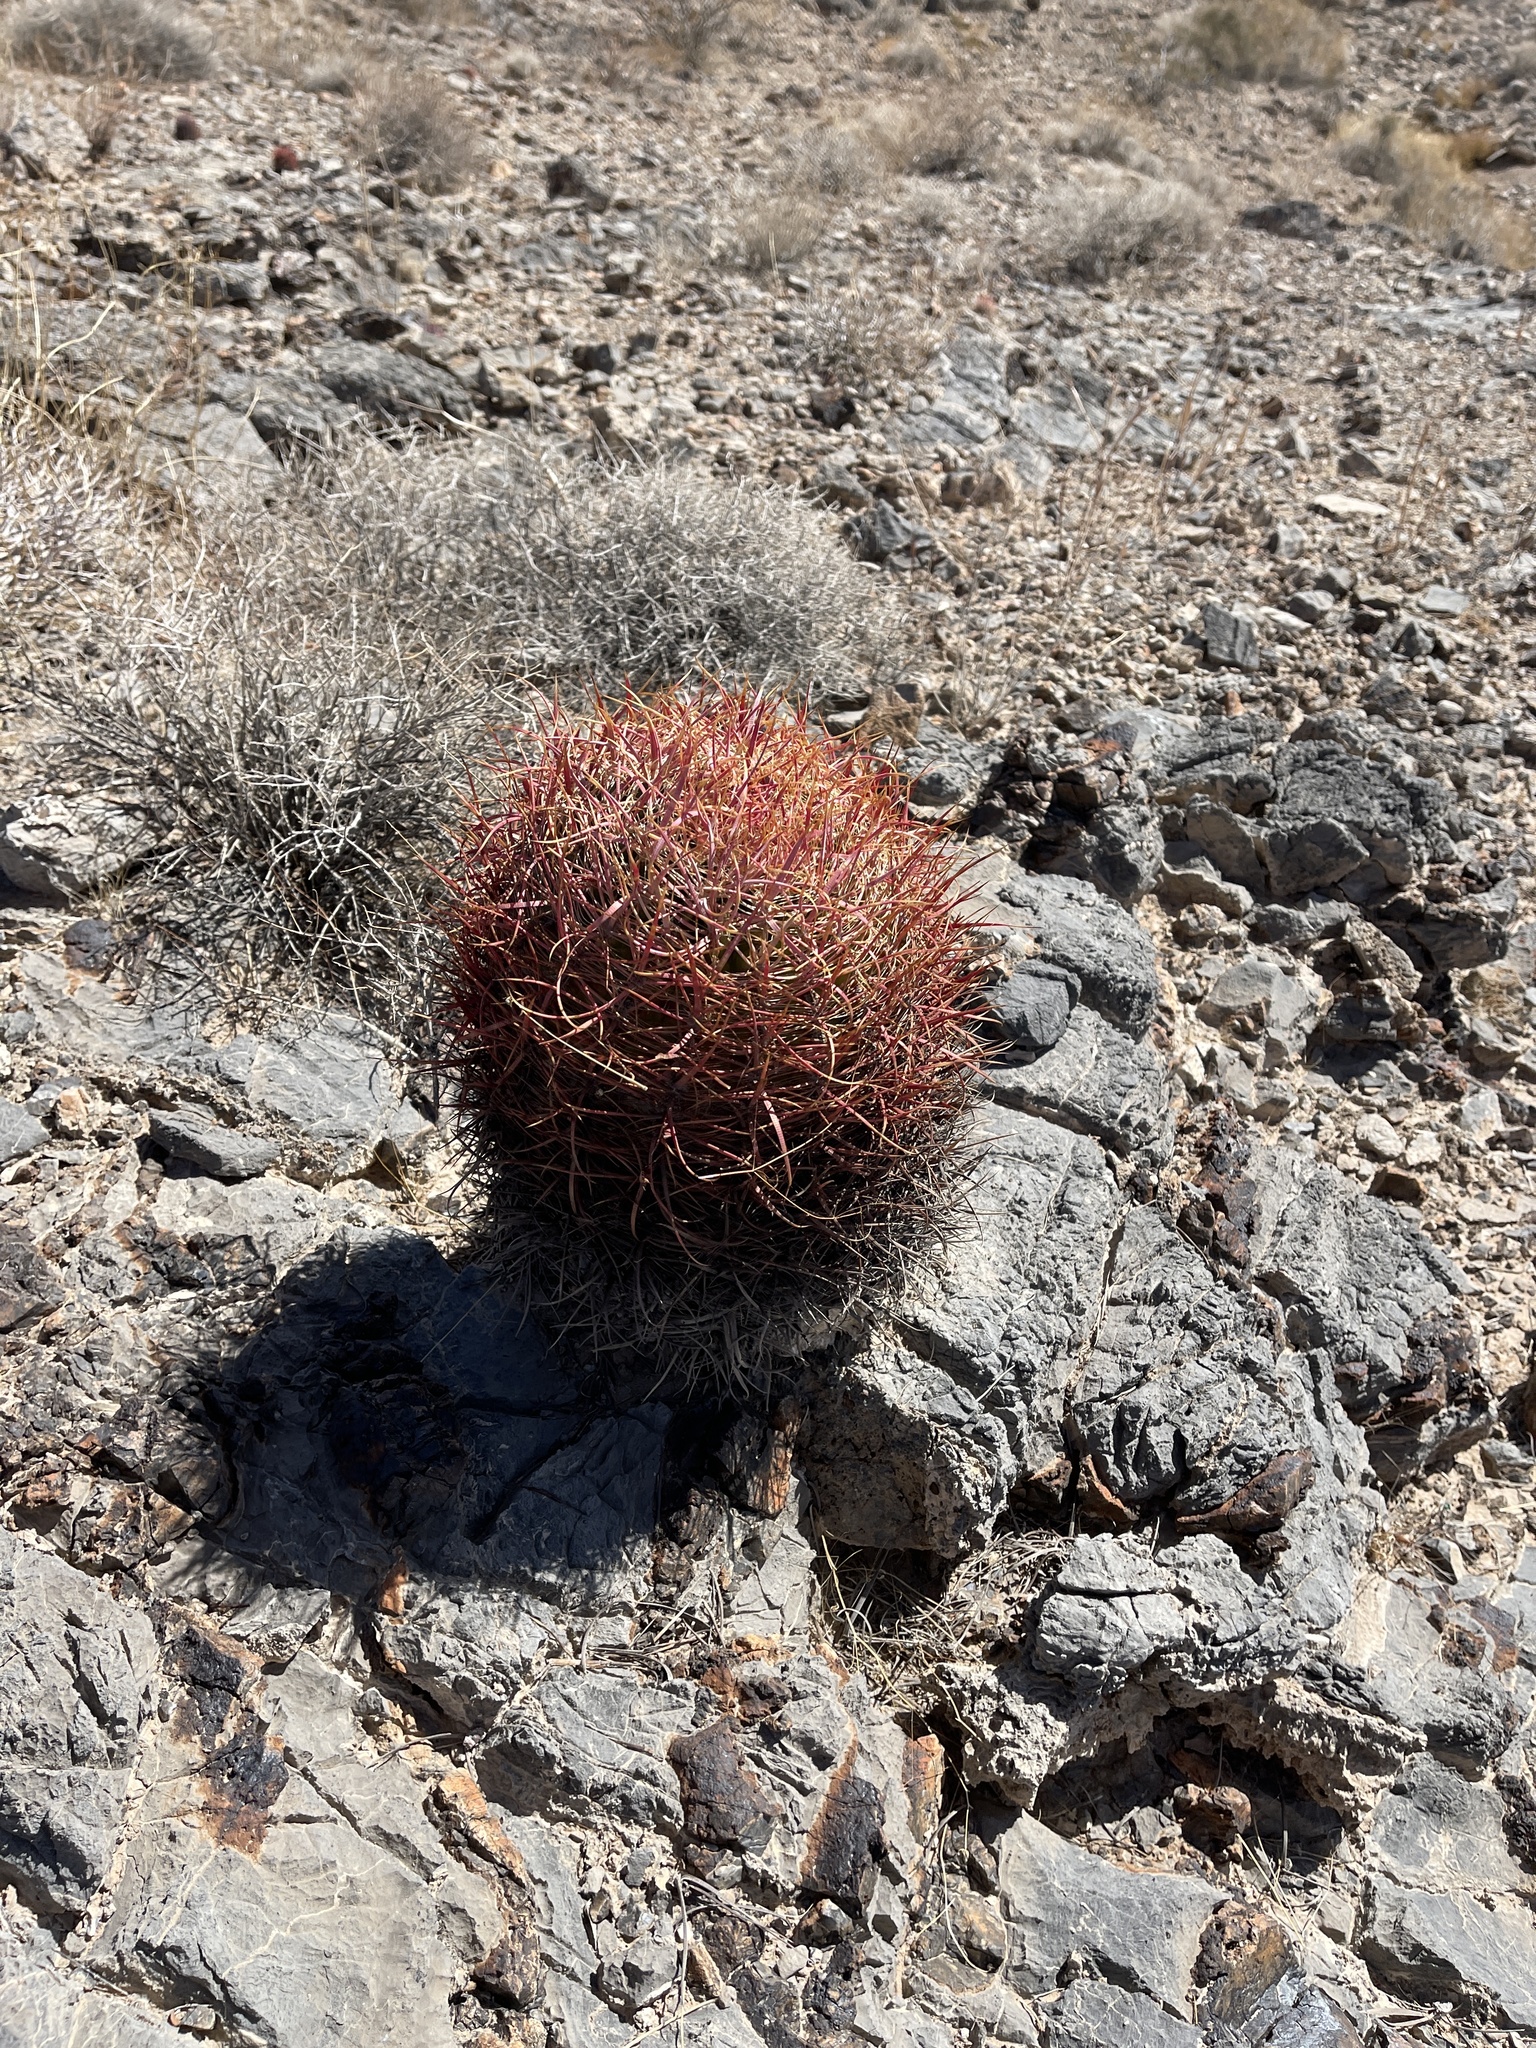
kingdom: Plantae
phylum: Tracheophyta
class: Magnoliopsida
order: Caryophyllales
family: Cactaceae
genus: Ferocactus
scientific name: Ferocactus cylindraceus
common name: California barrel cactus
